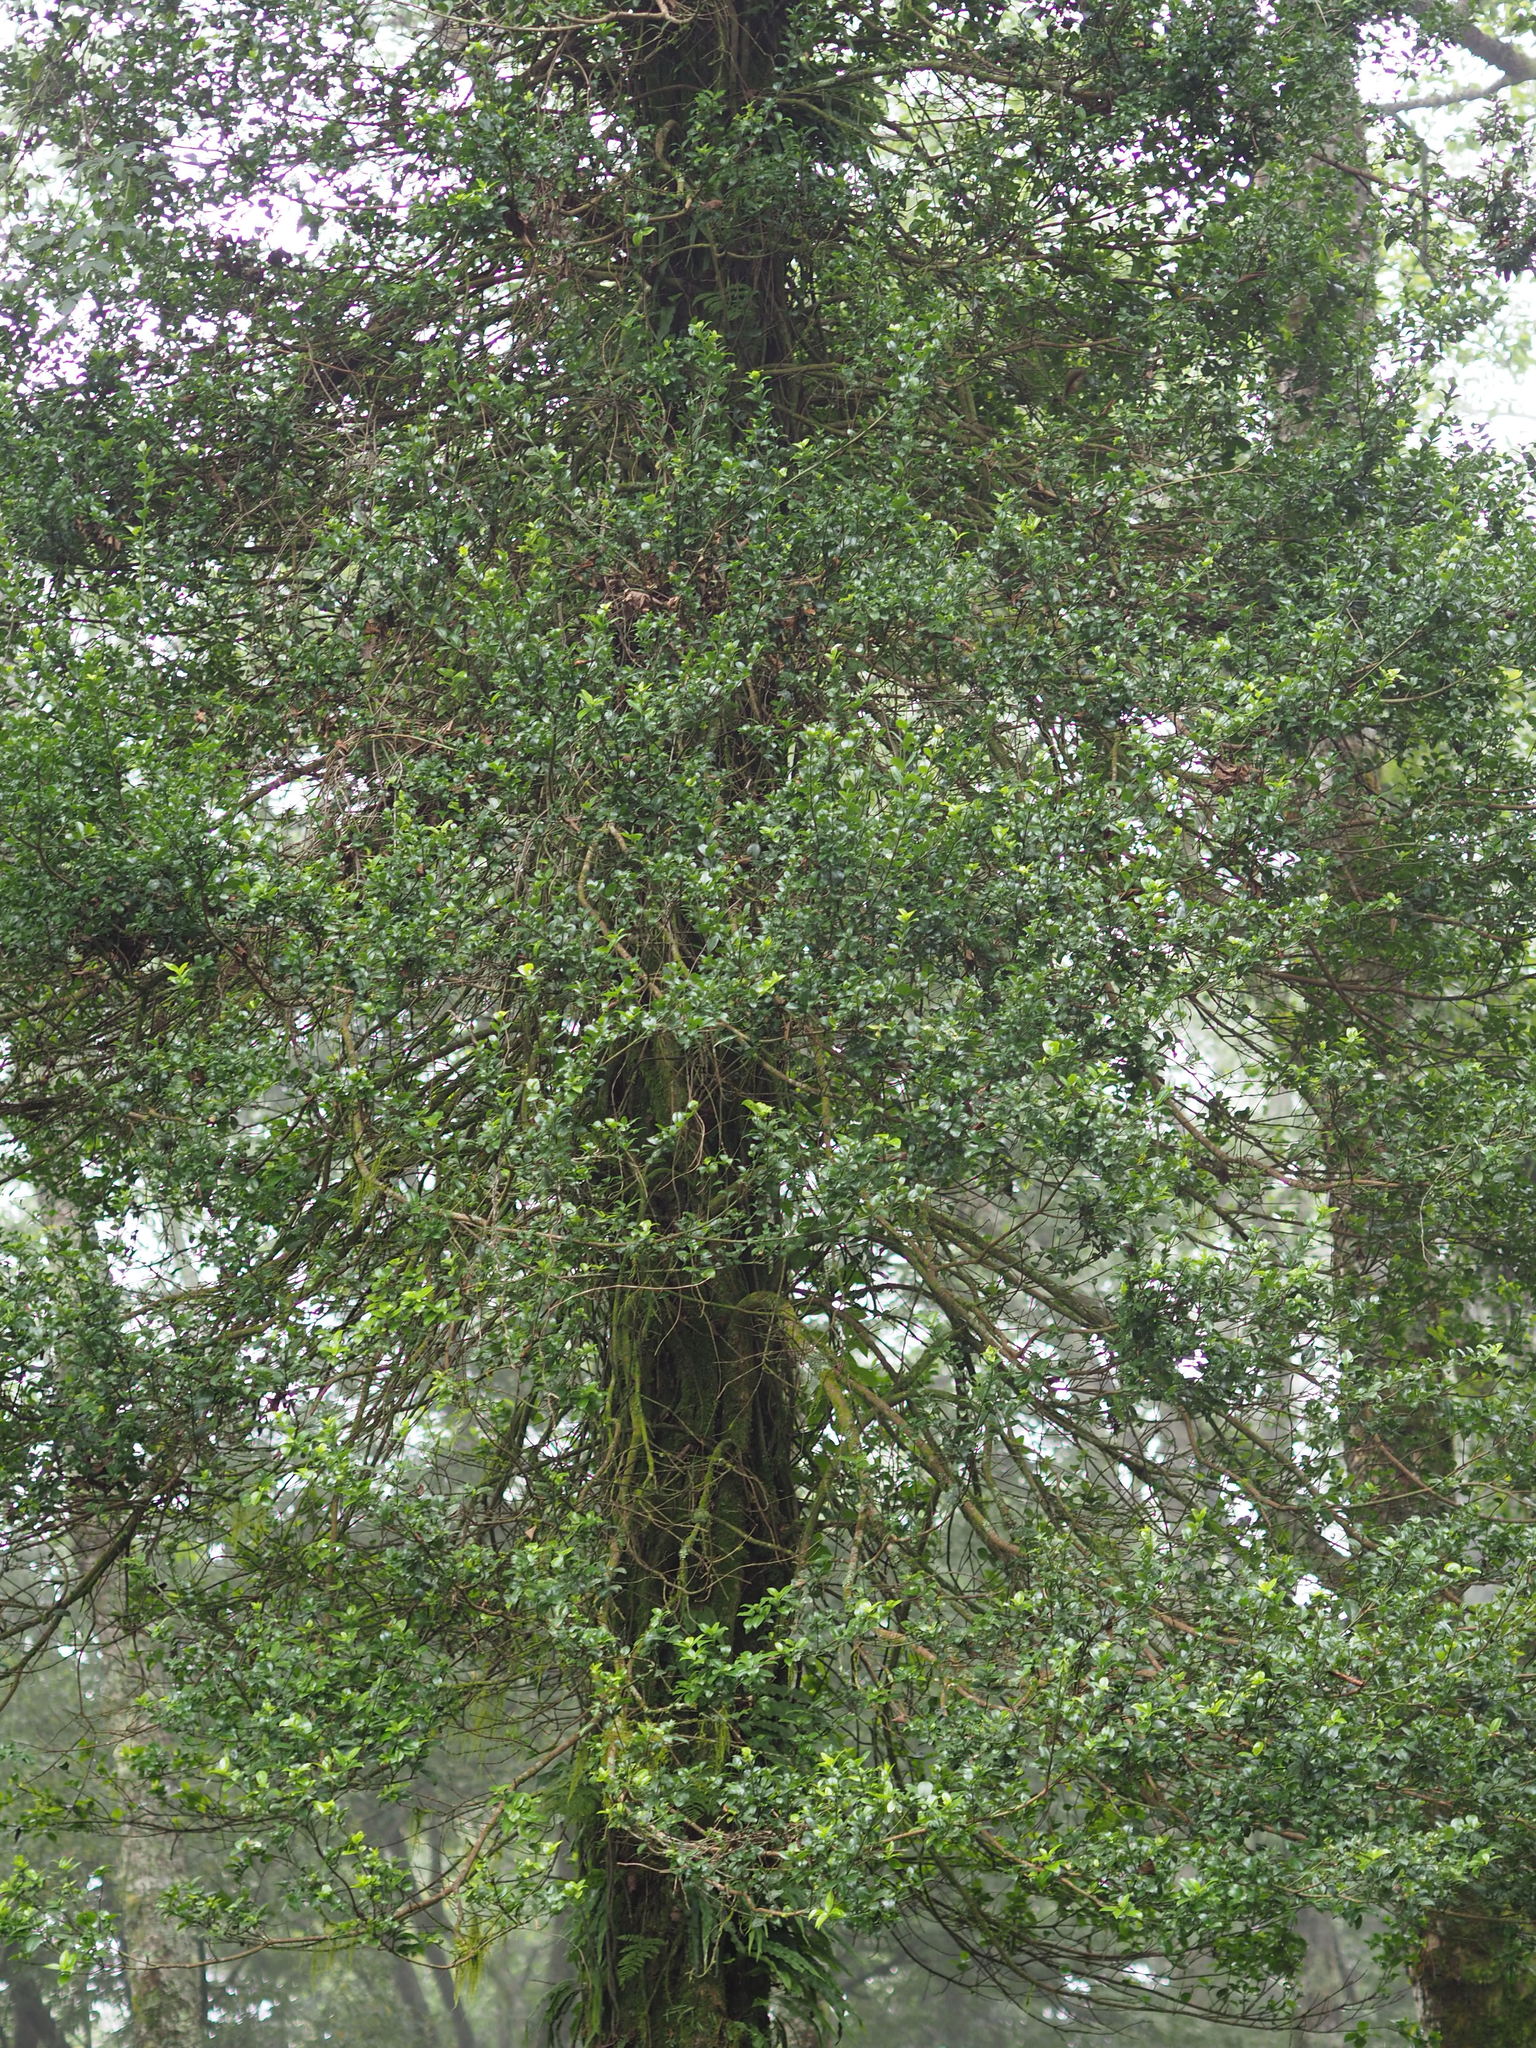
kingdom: Plantae
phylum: Tracheophyta
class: Magnoliopsida
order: Celastrales
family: Celastraceae
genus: Euonymus
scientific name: Euonymus spraguei
